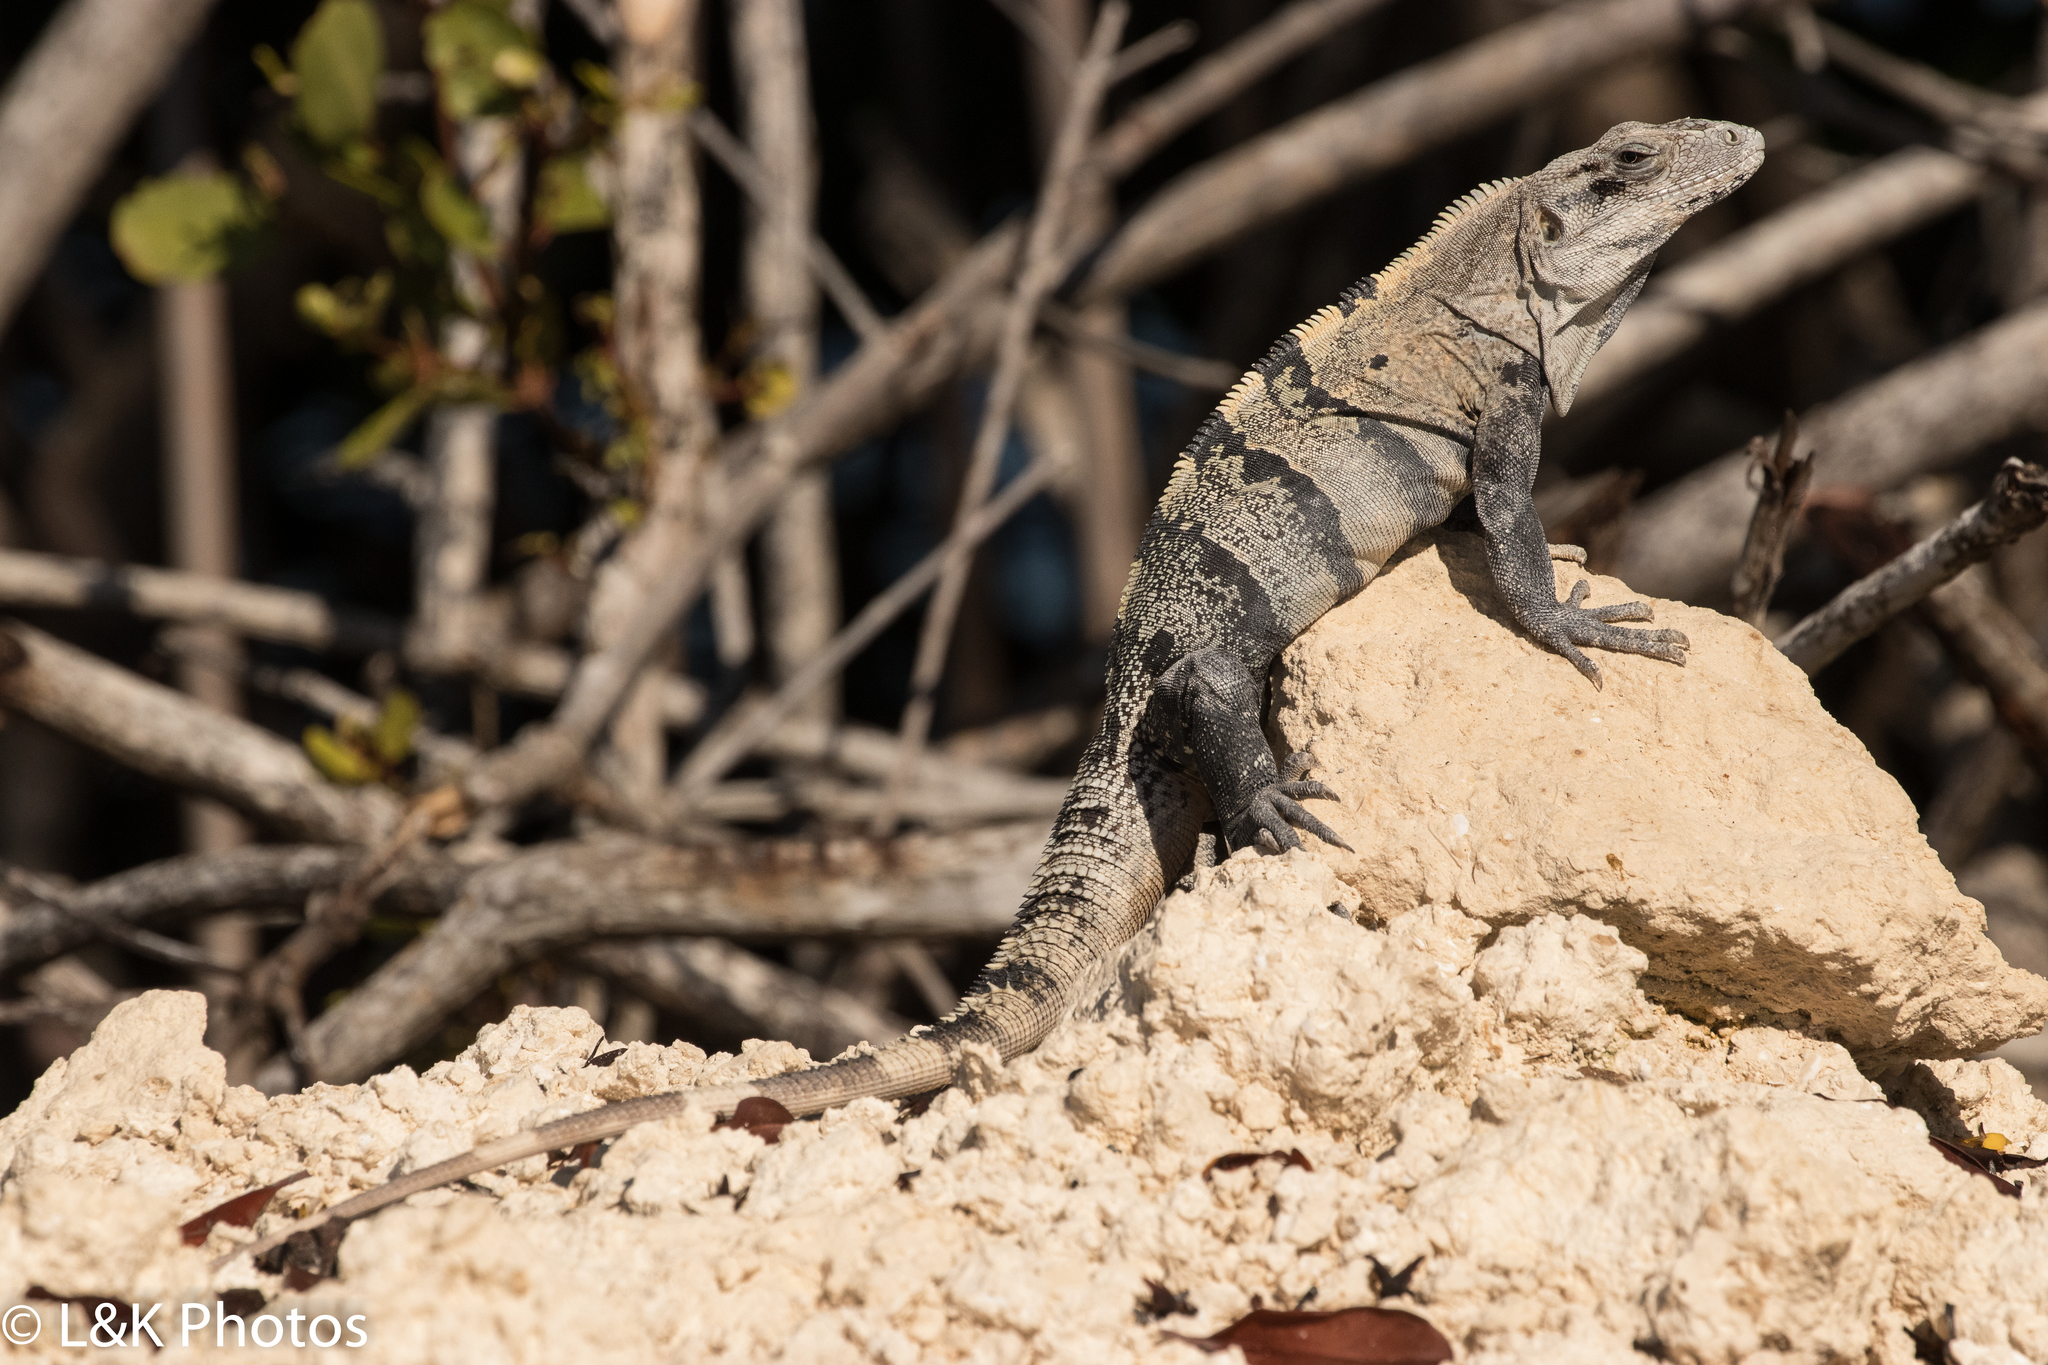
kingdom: Animalia
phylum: Chordata
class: Squamata
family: Iguanidae
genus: Ctenosaura
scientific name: Ctenosaura similis
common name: Black spiny-tailed iguana
